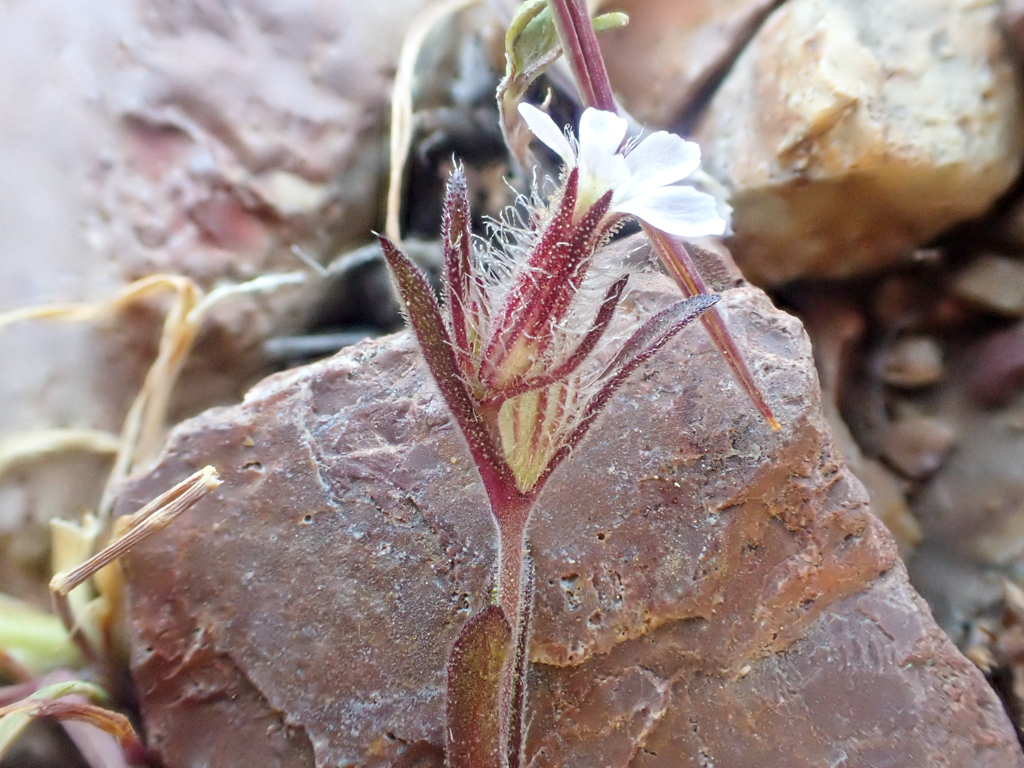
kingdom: Plantae
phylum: Tracheophyta
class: Magnoliopsida
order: Caryophyllales
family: Caryophyllaceae
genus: Silene
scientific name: Silene gallica
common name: Small-flowered catchfly
